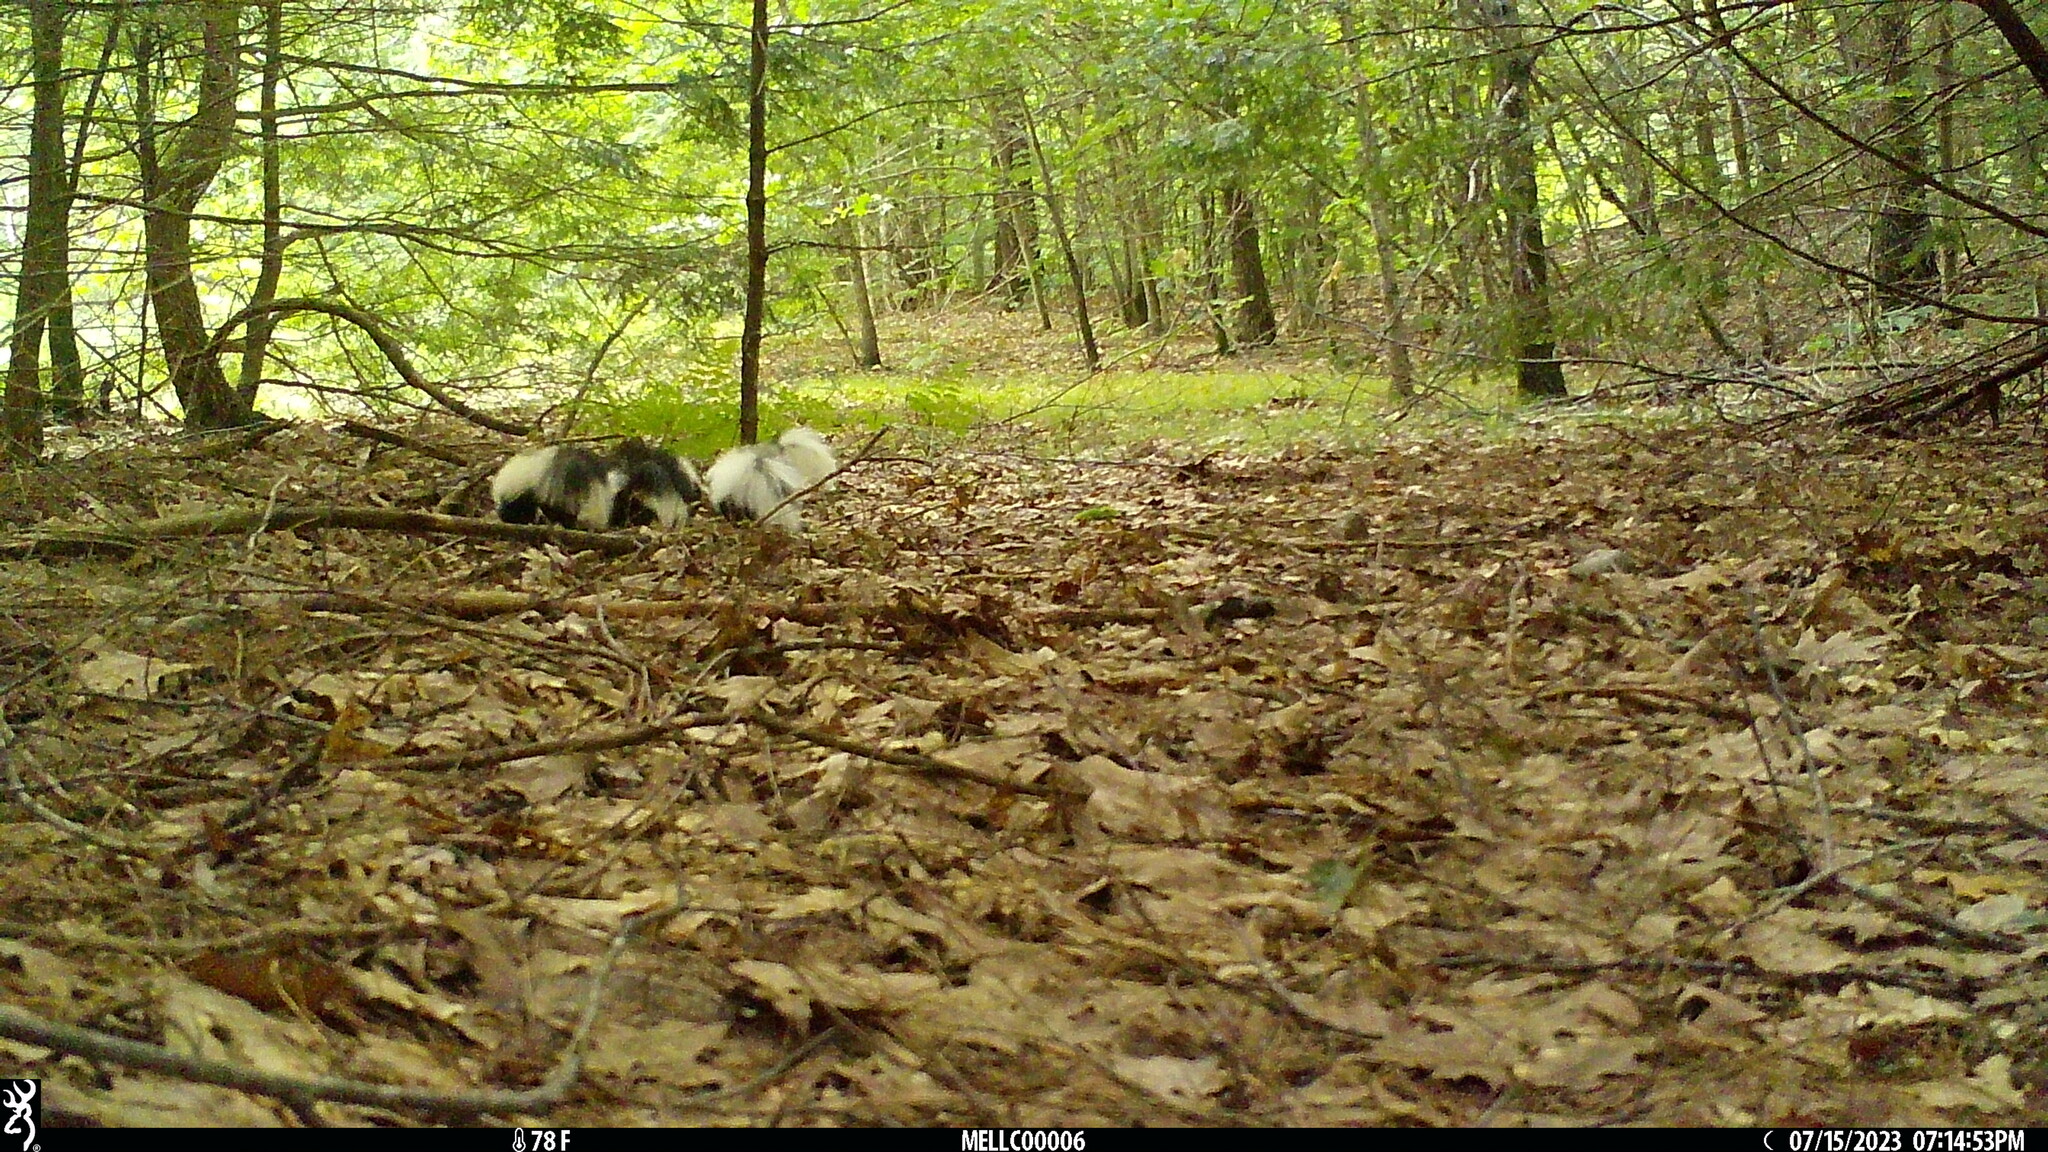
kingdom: Animalia
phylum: Chordata
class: Mammalia
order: Carnivora
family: Mephitidae
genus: Mephitis
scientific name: Mephitis mephitis
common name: Striped skunk
